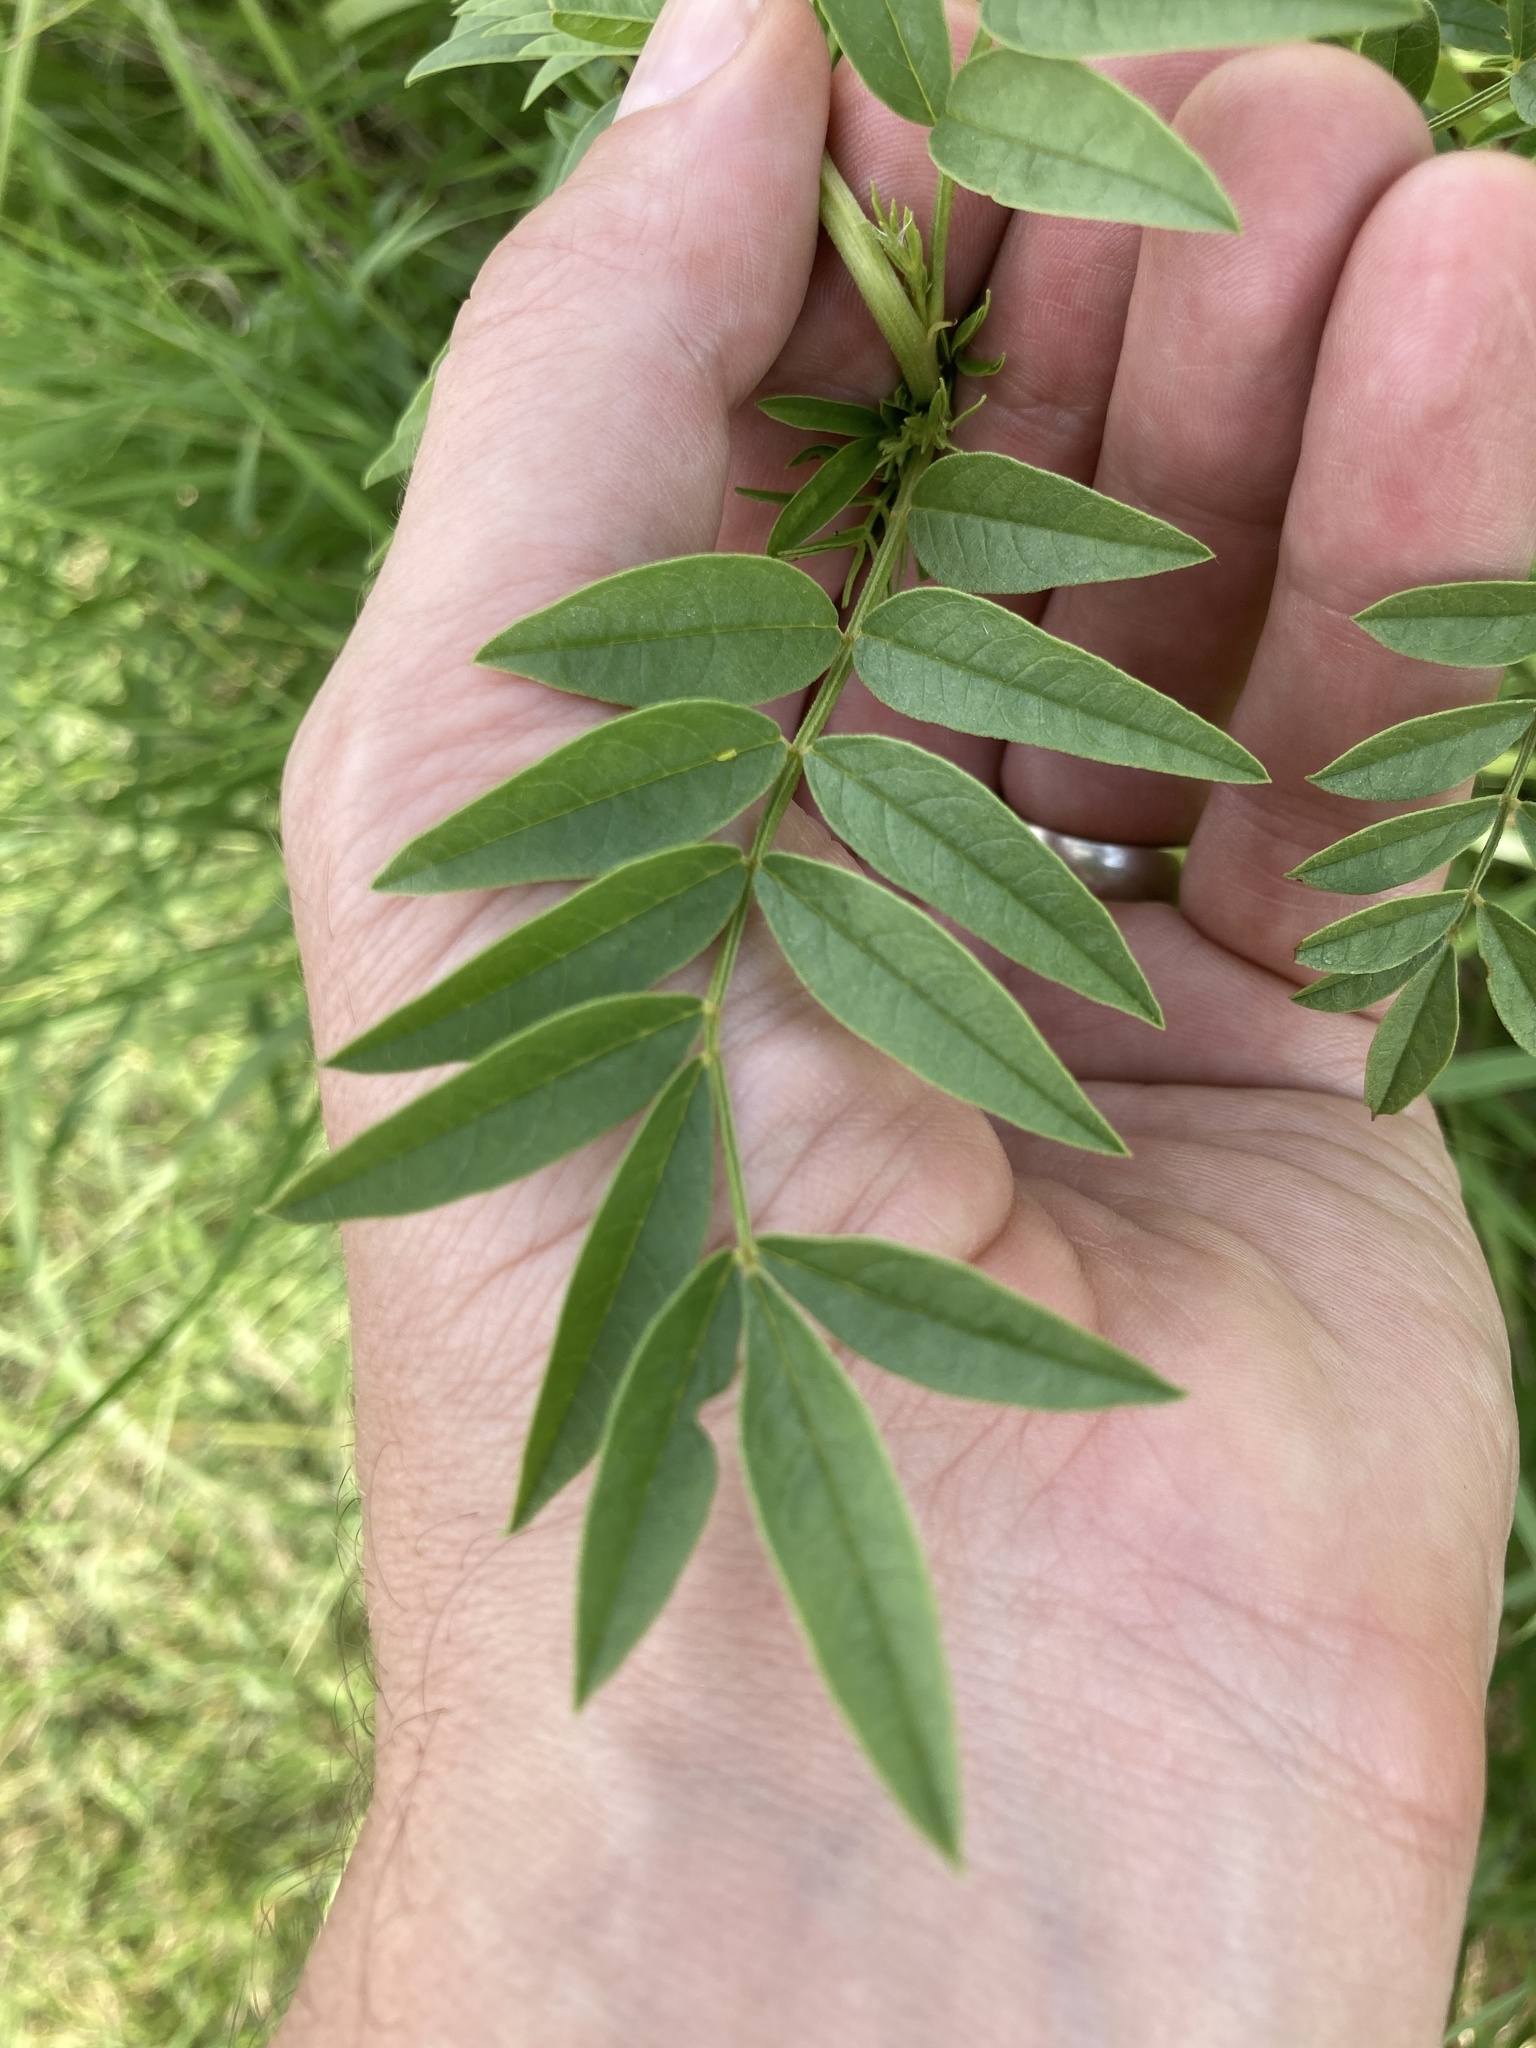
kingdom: Plantae
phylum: Tracheophyta
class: Magnoliopsida
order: Fabales
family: Fabaceae
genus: Glycyrrhiza
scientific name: Glycyrrhiza lepidota
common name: American liquorice
